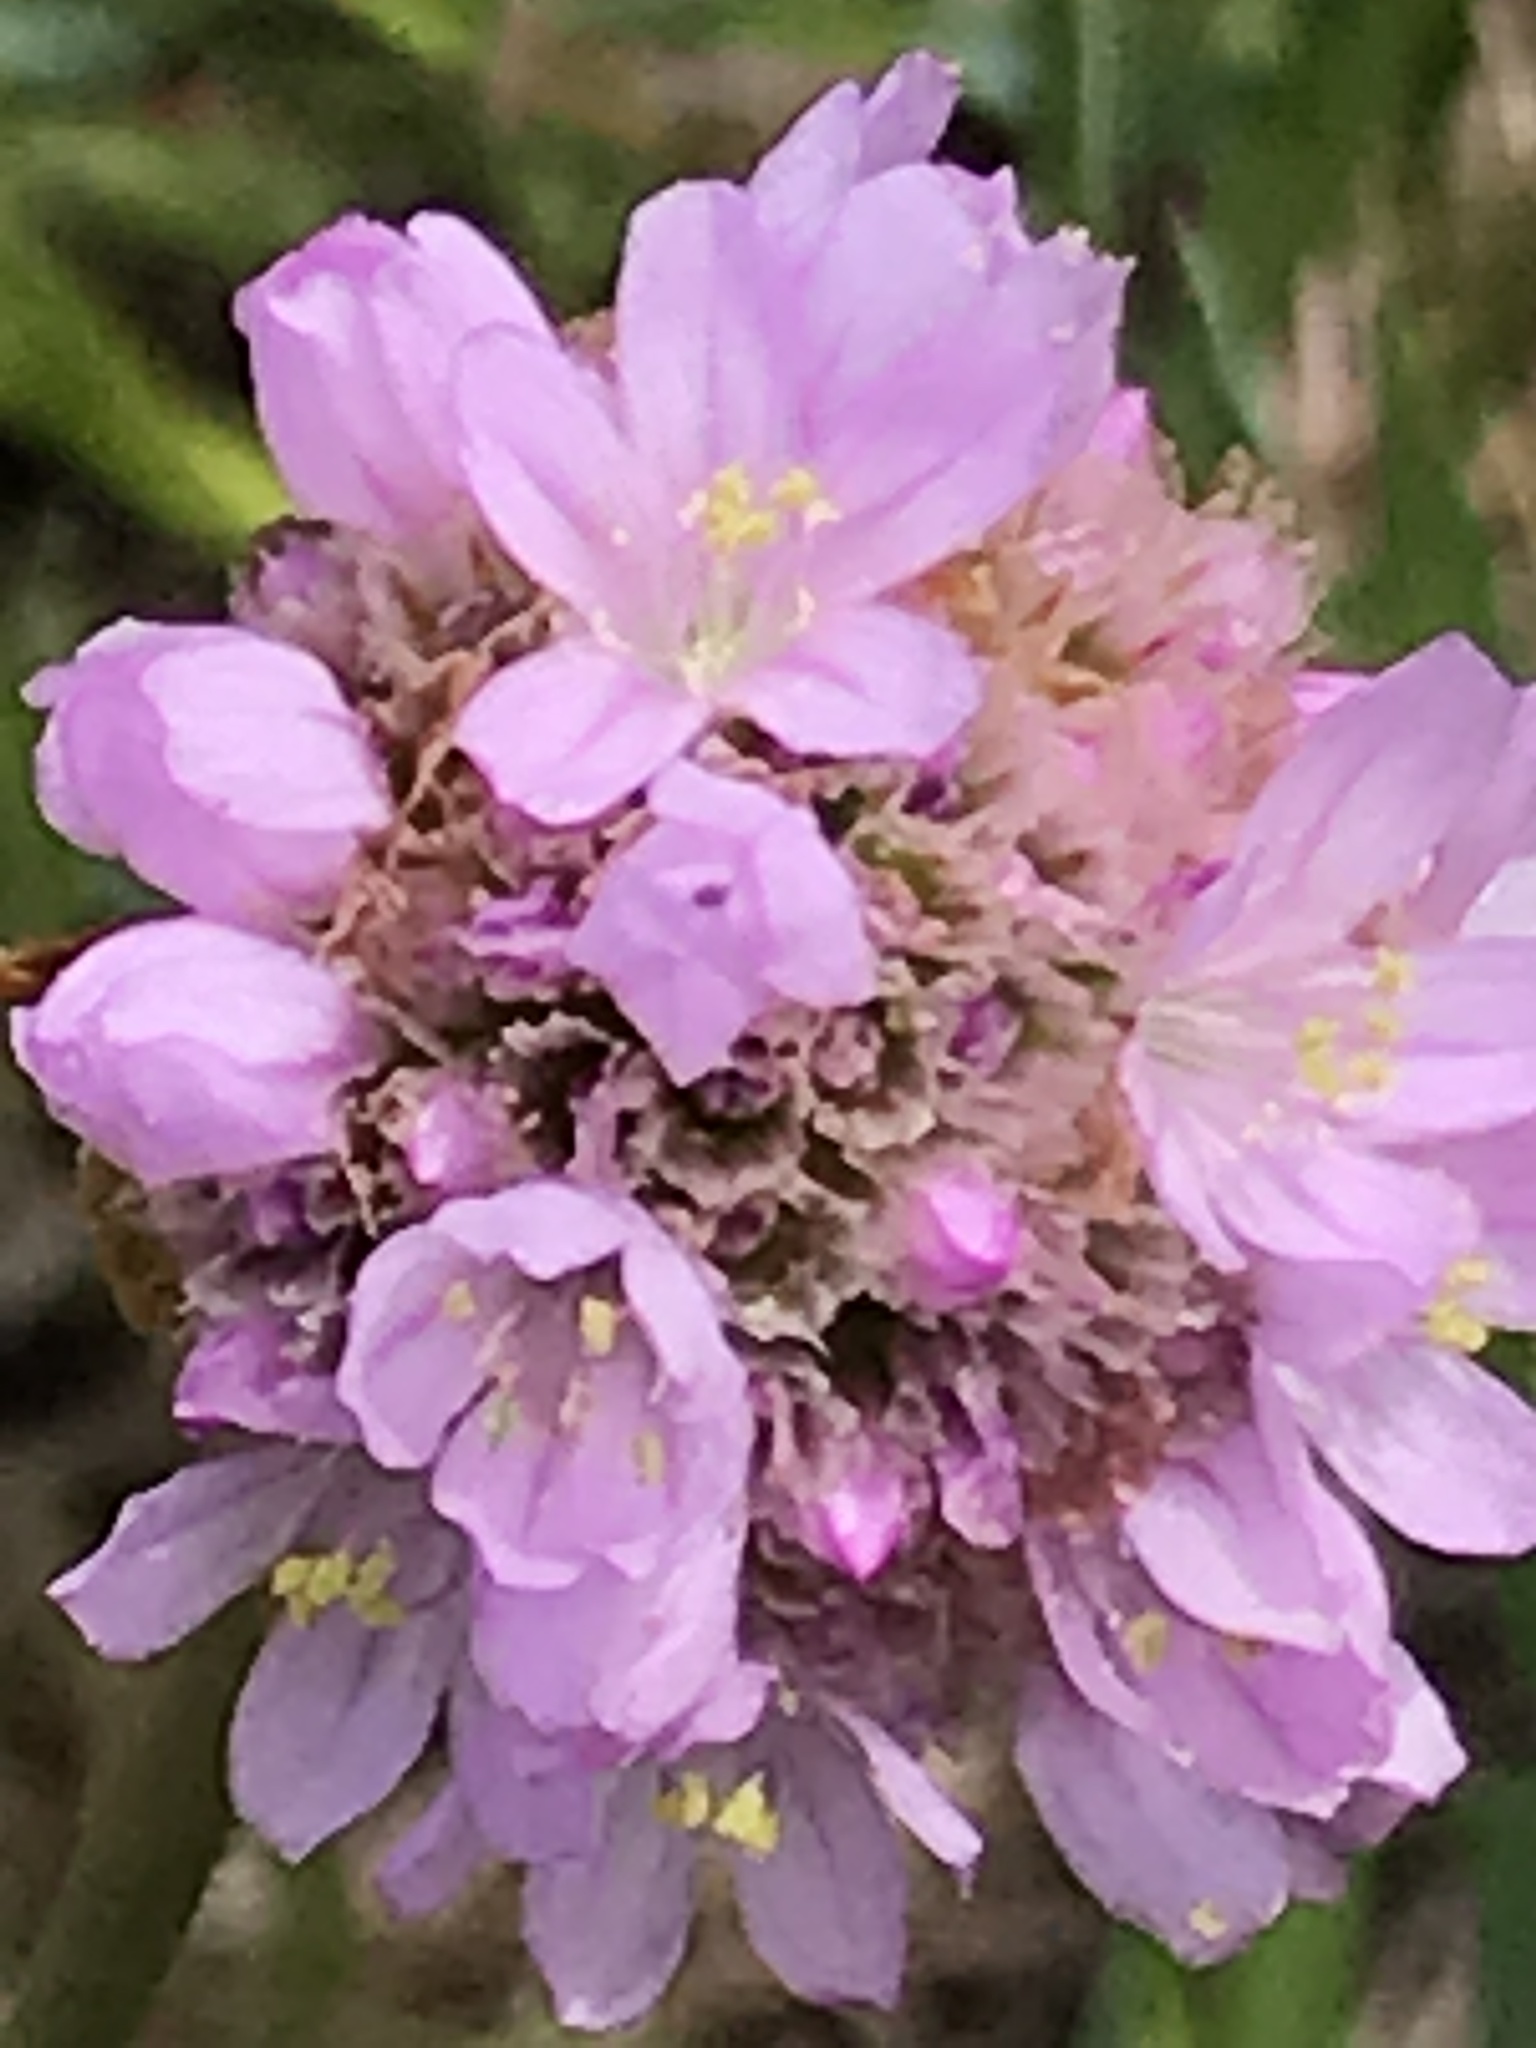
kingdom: Plantae
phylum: Tracheophyta
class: Magnoliopsida
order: Caryophyllales
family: Plumbaginaceae
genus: Armeria
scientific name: Armeria maritima
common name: Thrift
